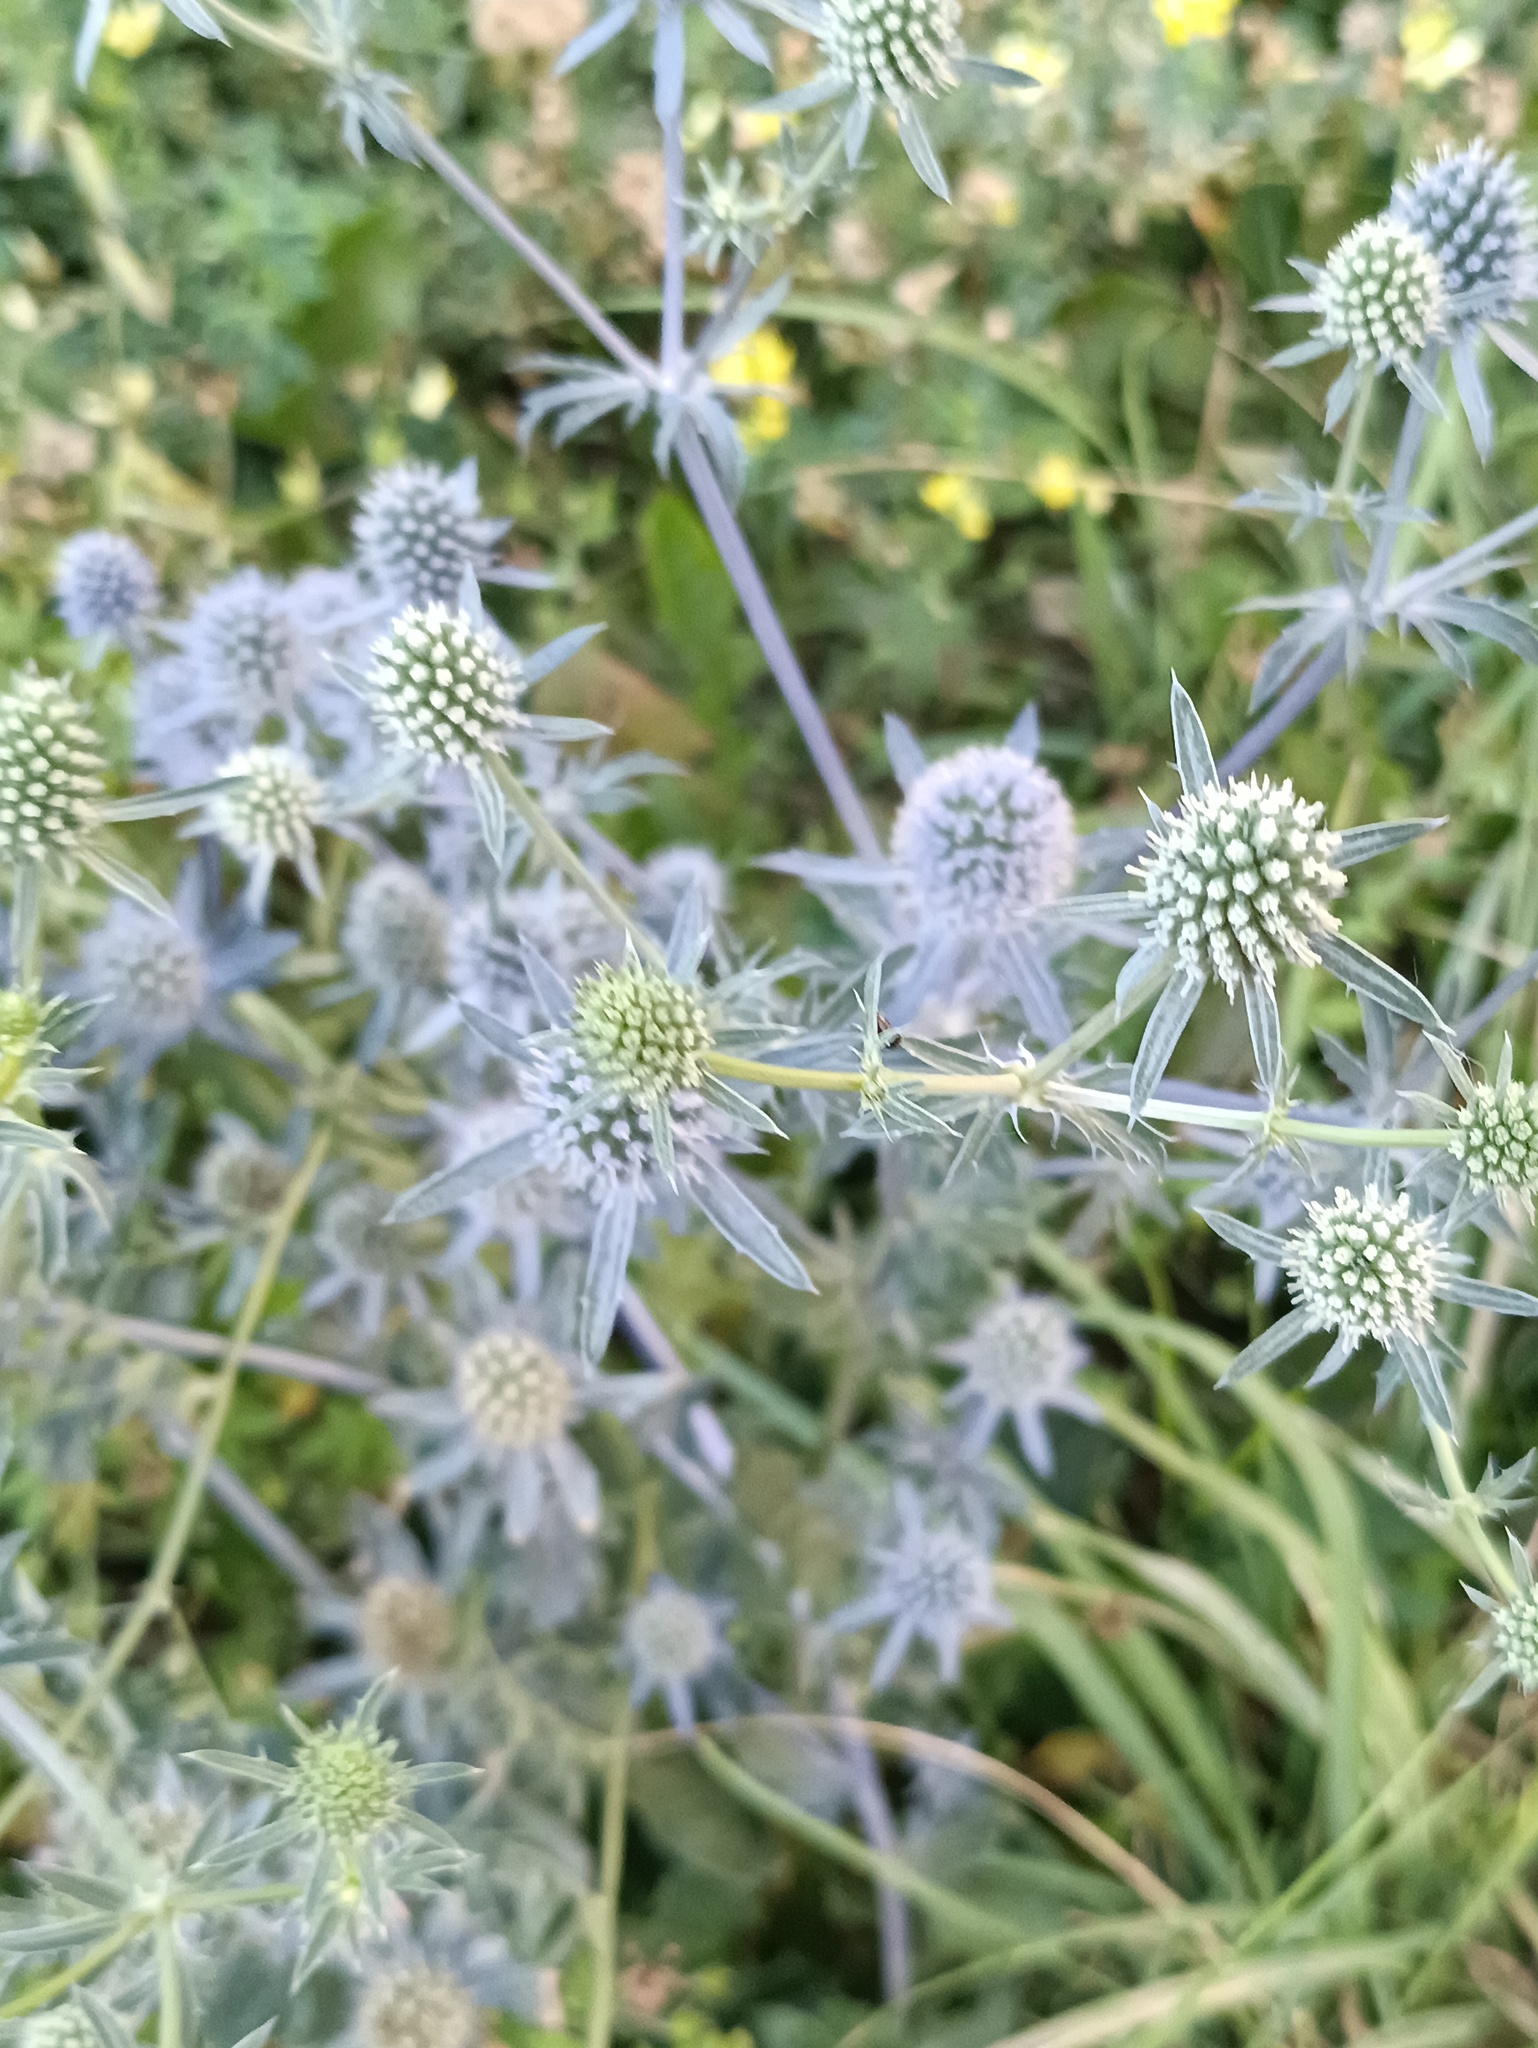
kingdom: Plantae
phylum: Tracheophyta
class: Magnoliopsida
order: Apiales
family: Apiaceae
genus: Eryngium
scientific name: Eryngium planum
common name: Blue eryngo
